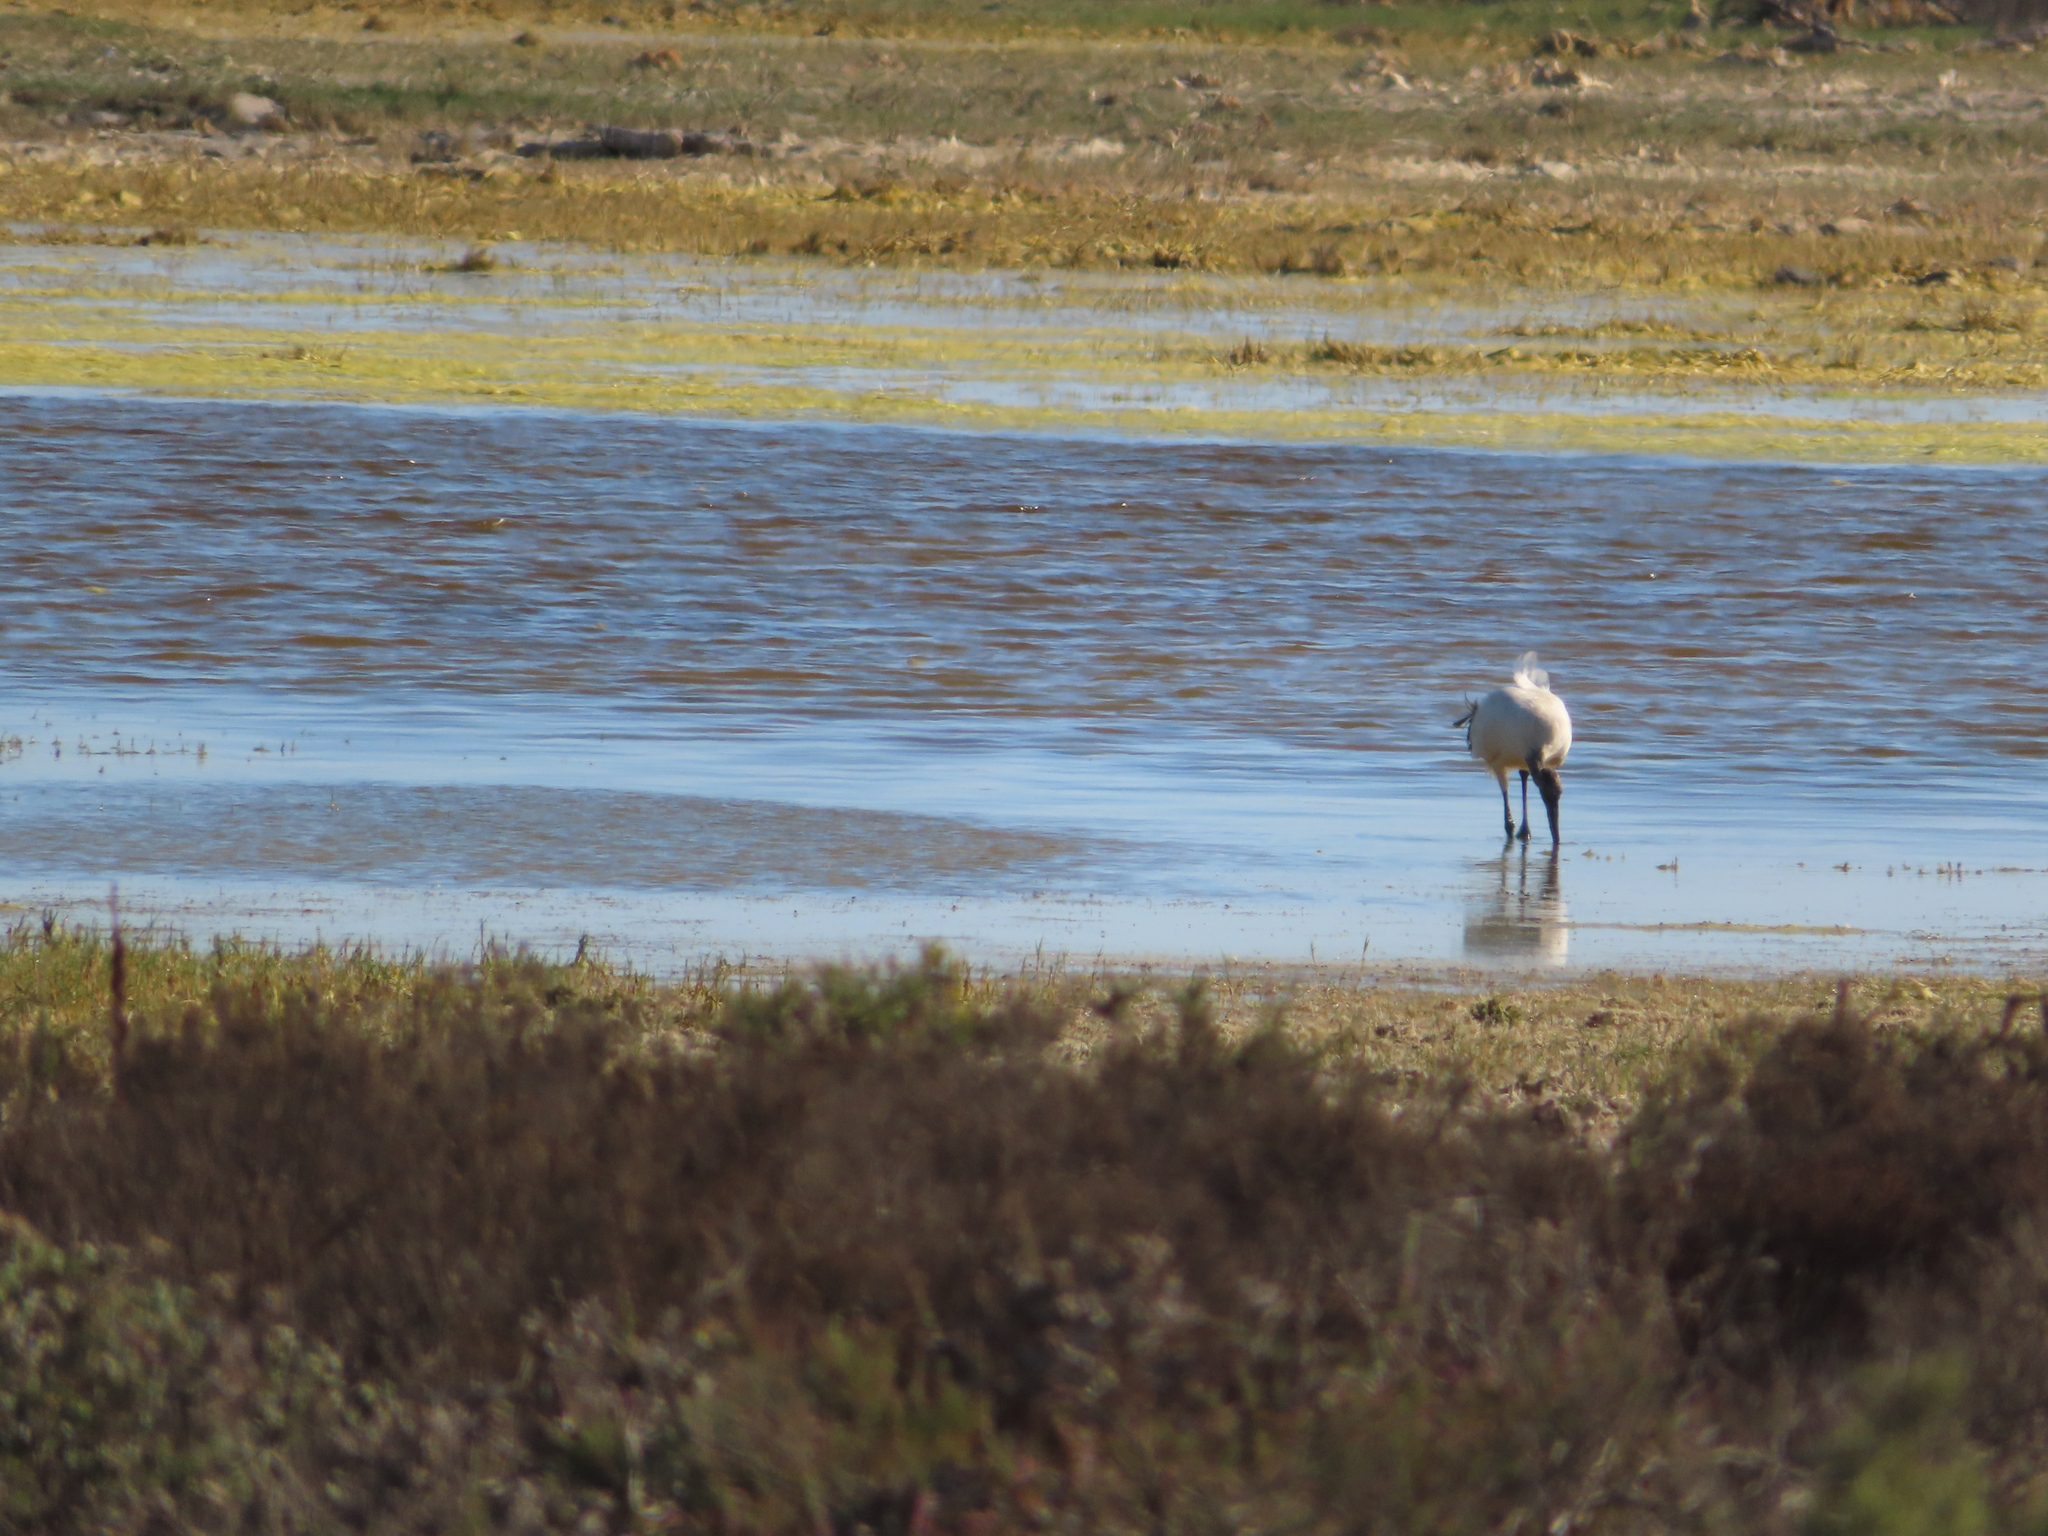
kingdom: Animalia
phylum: Chordata
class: Aves
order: Pelecaniformes
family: Threskiornithidae
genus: Threskiornis
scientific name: Threskiornis aethiopicus
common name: Sacred ibis
